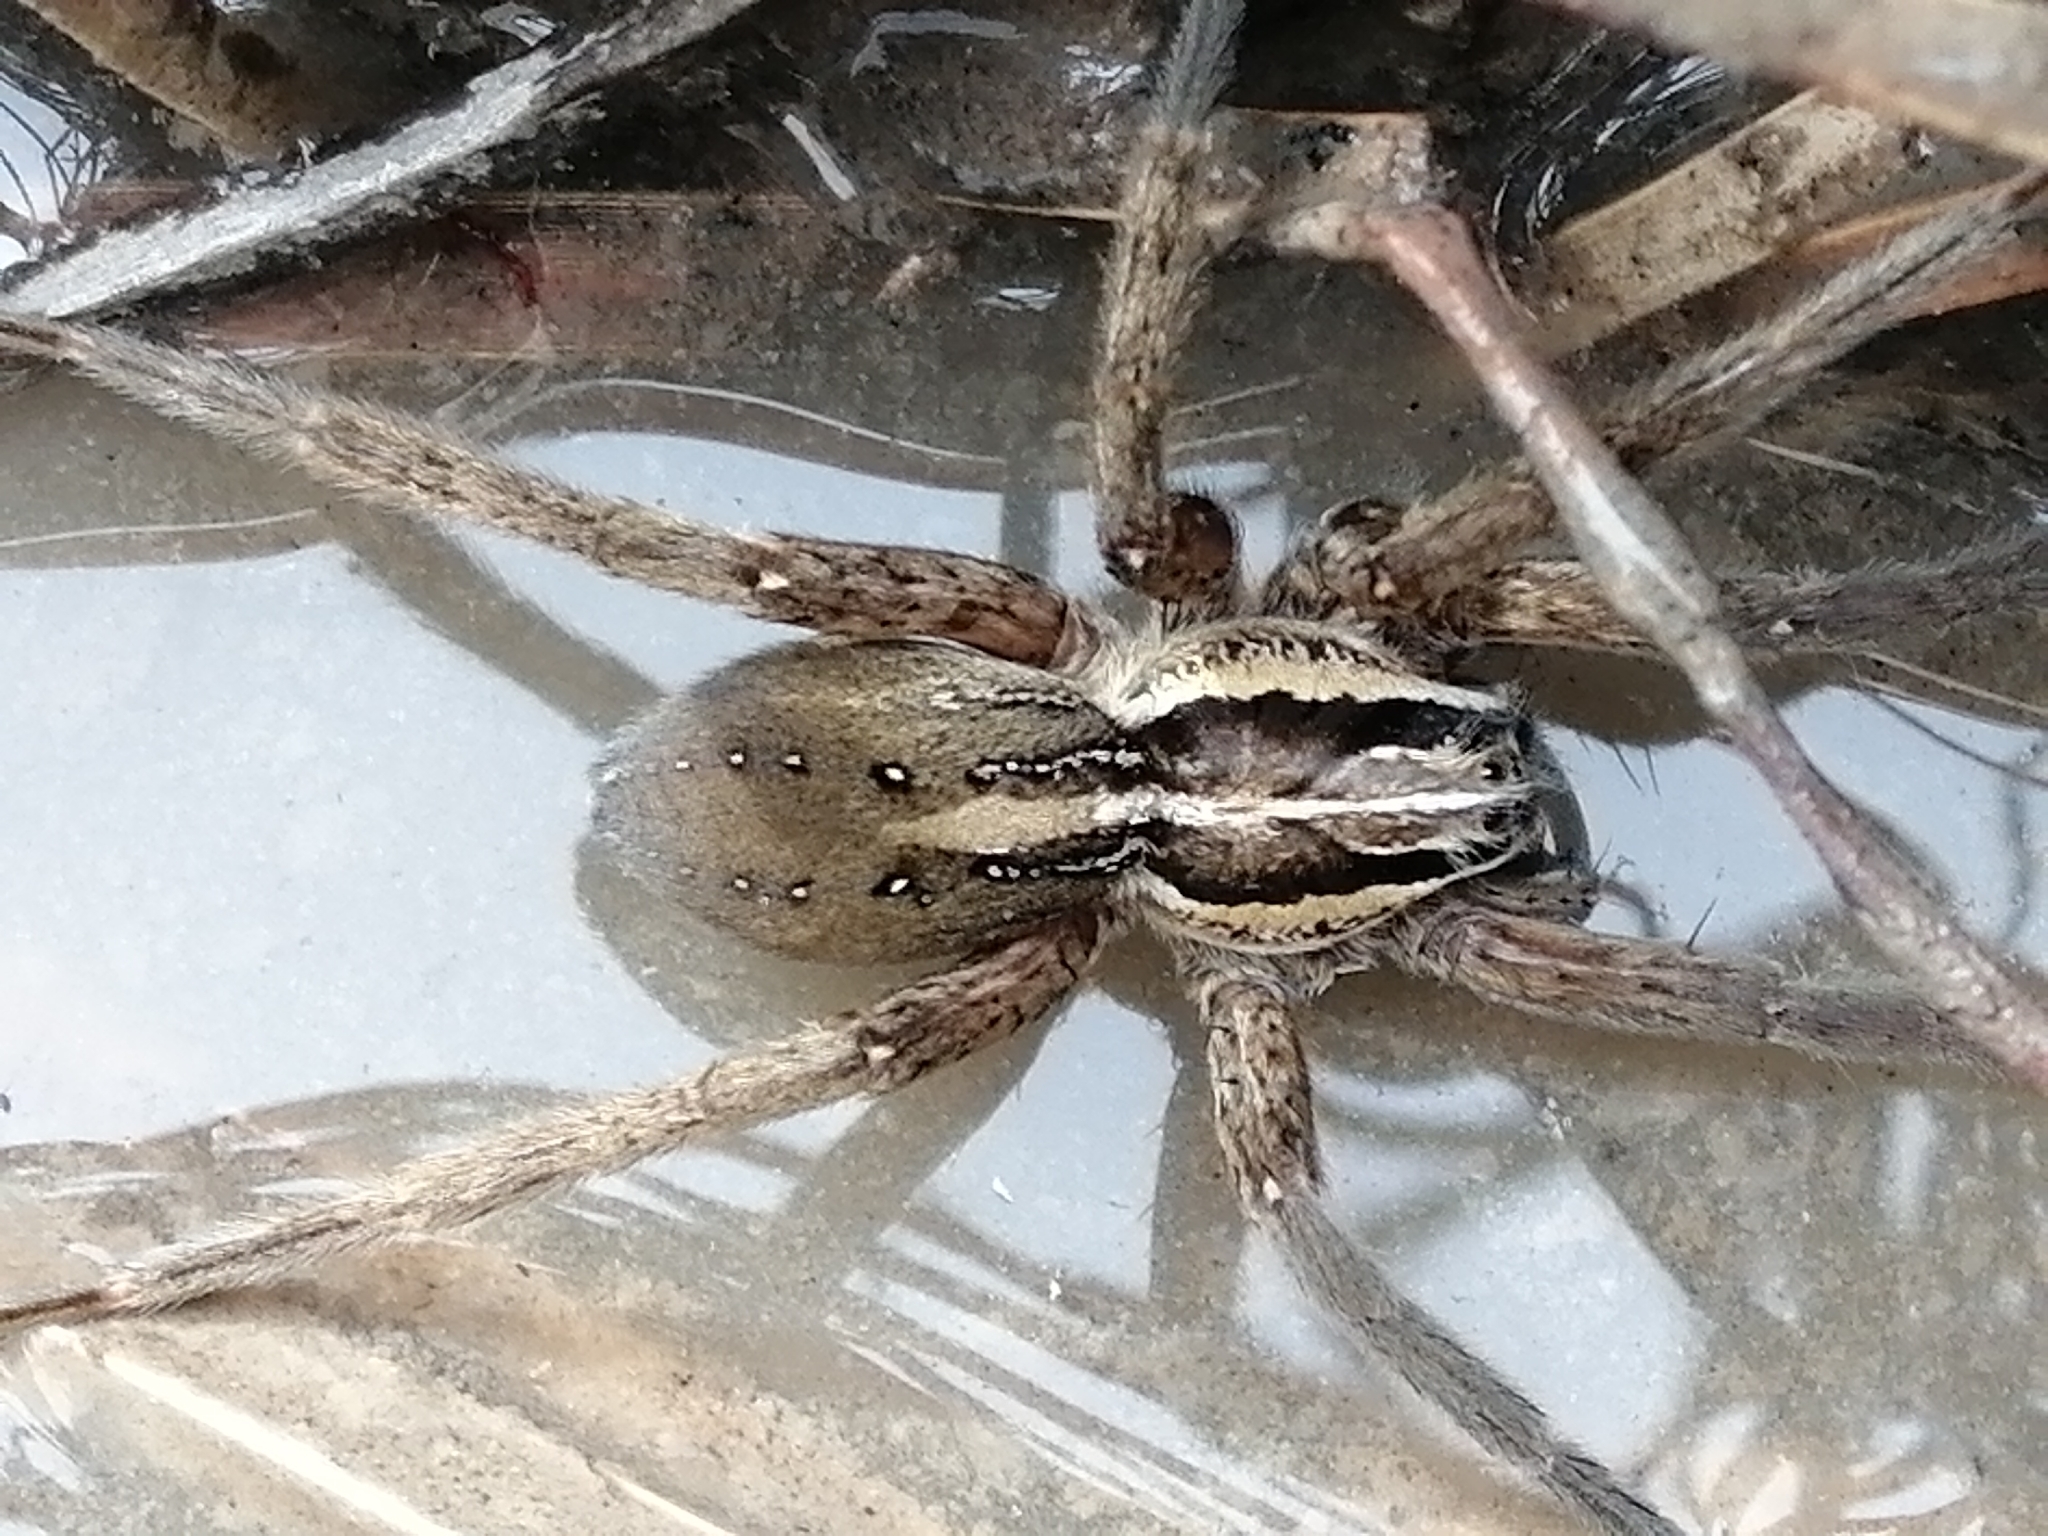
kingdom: Animalia
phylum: Arthropoda
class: Arachnida
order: Araneae
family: Pisauridae
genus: Dolomedes
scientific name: Dolomedes minor
